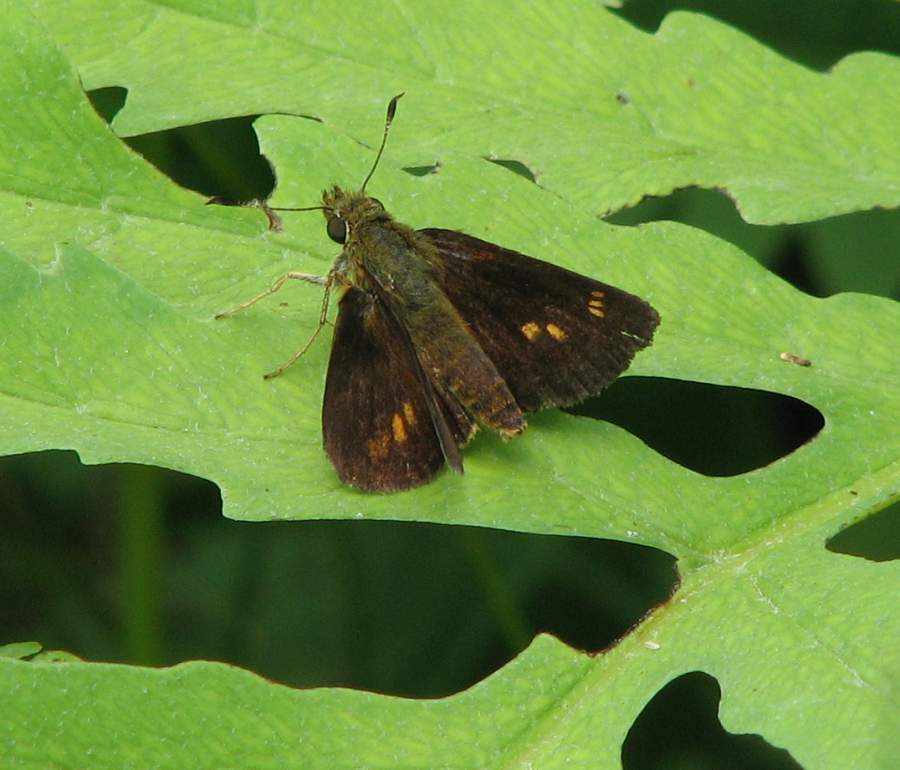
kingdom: Animalia
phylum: Arthropoda
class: Insecta
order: Lepidoptera
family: Hesperiidae
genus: Poanes
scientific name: Poanes massasoit
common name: Mulberrywing
